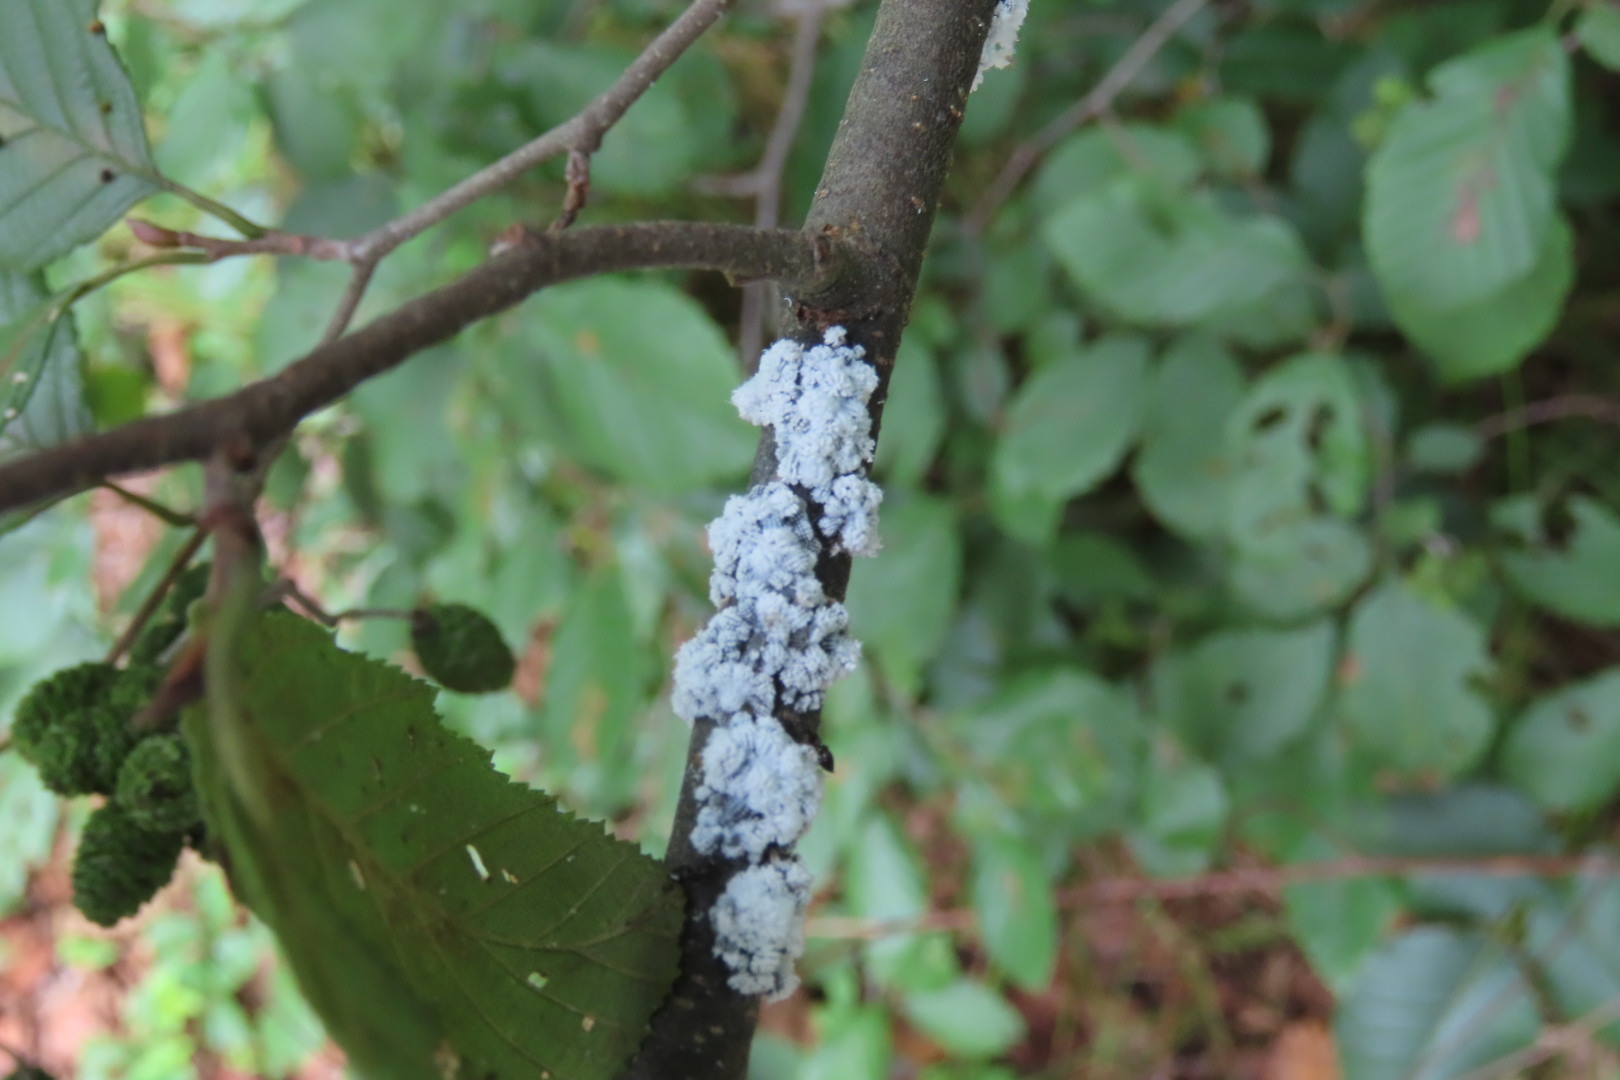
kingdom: Animalia
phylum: Arthropoda
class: Insecta
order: Hemiptera
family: Aphididae
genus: Prociphilus
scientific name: Prociphilus tessellatus
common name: Woolly alder aphid
